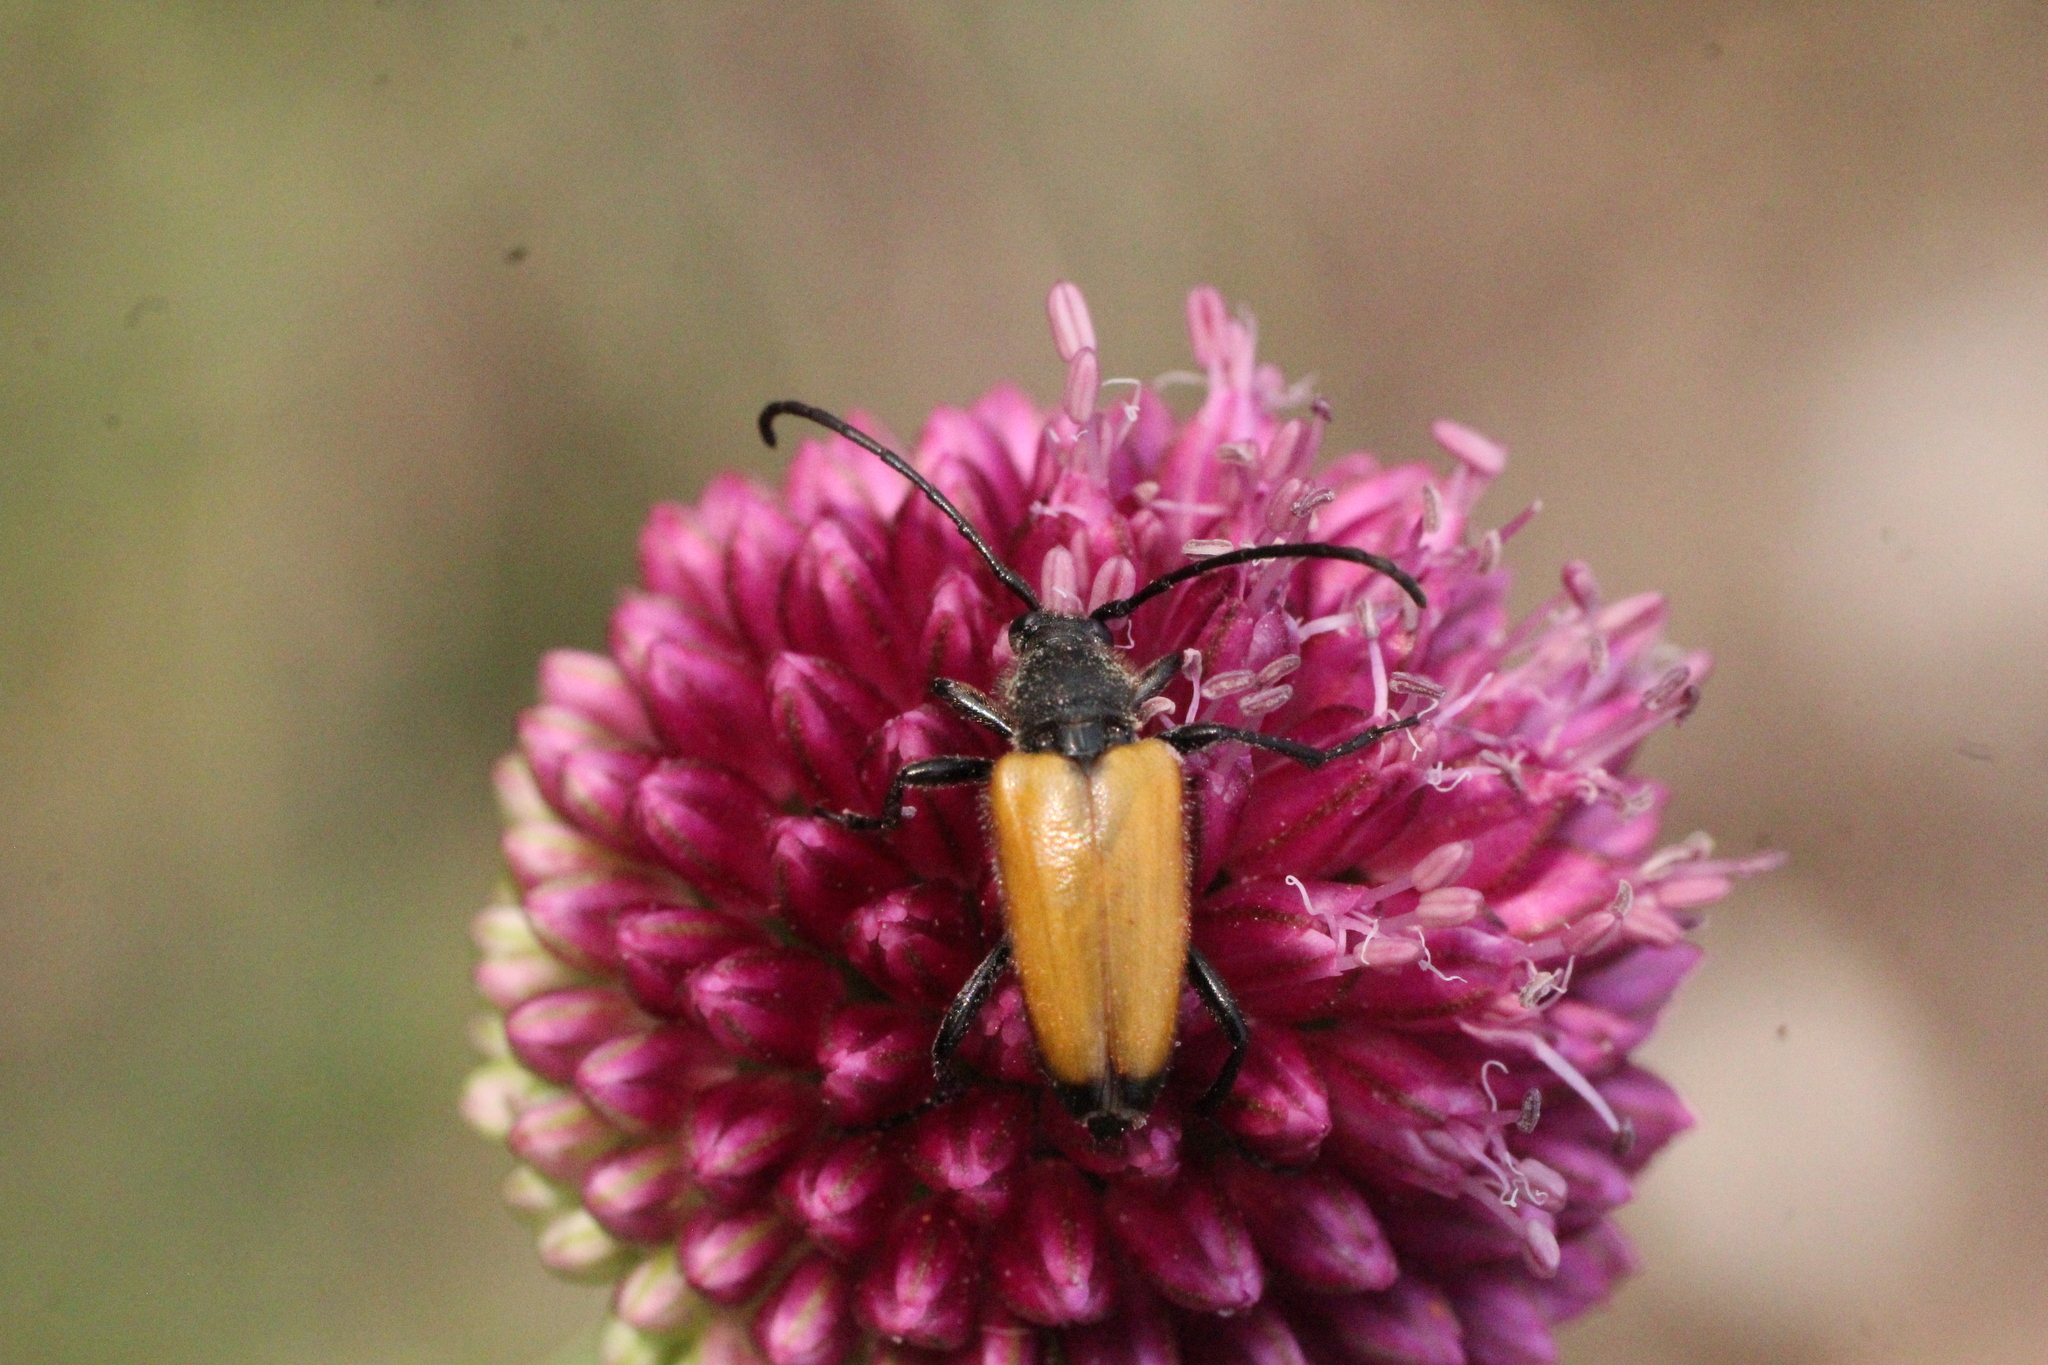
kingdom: Animalia
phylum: Arthropoda
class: Insecta
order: Coleoptera
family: Cerambycidae
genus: Paracorymbia
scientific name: Paracorymbia fulva
